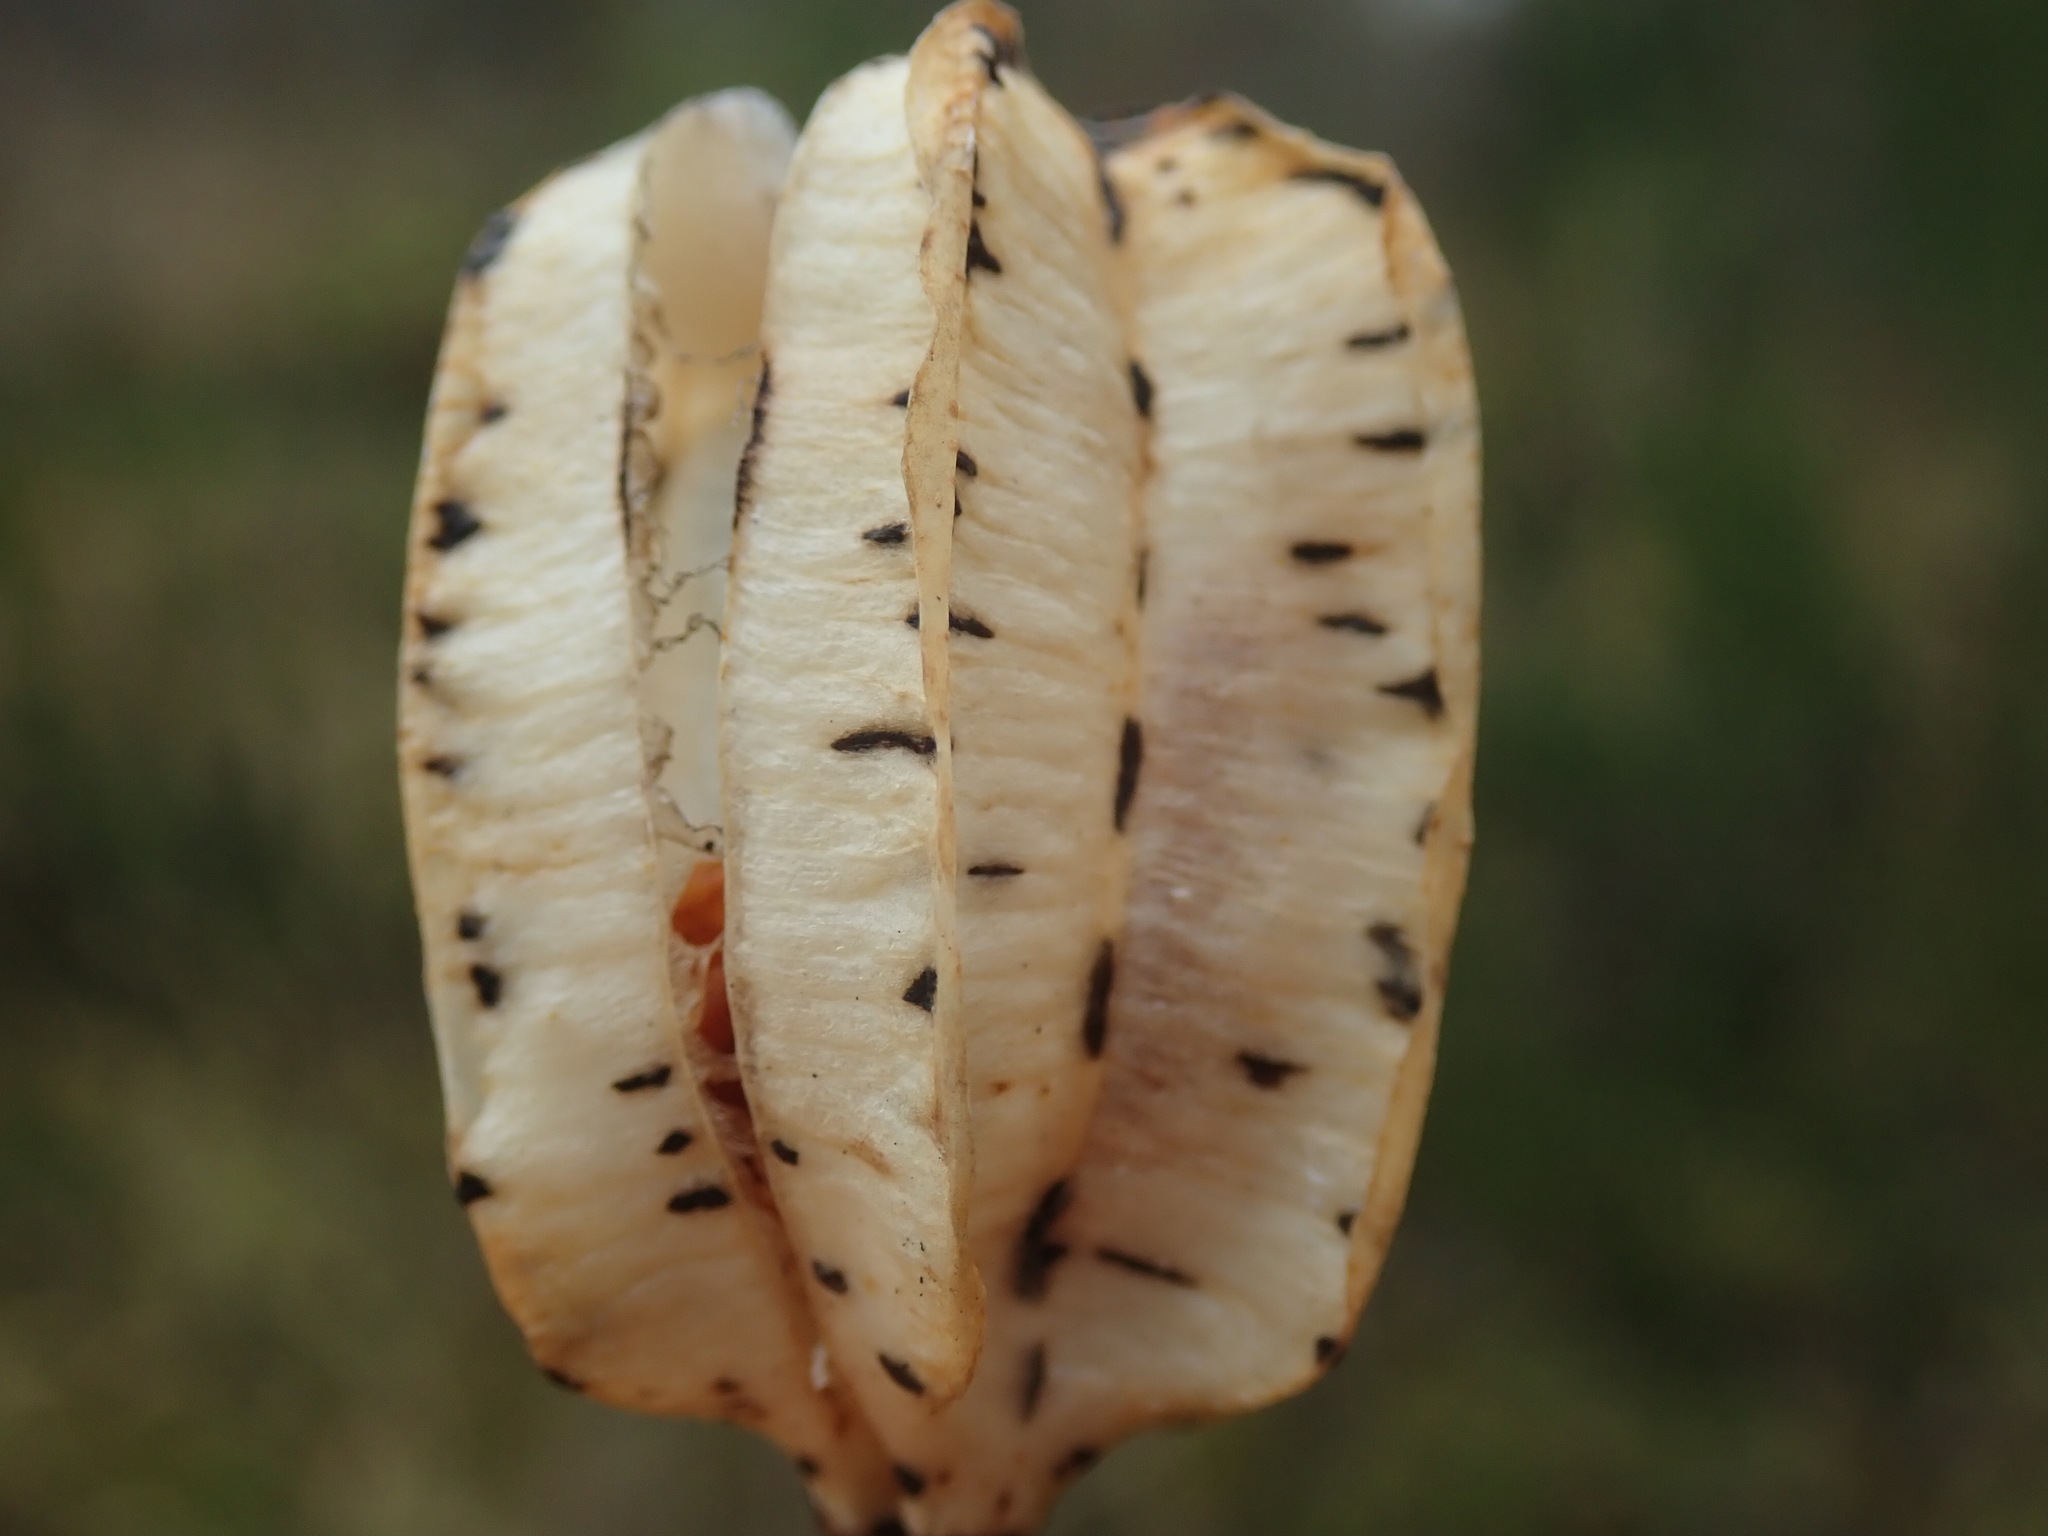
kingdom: Plantae
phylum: Tracheophyta
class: Liliopsida
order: Liliales
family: Liliaceae
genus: Fritillaria
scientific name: Fritillaria affinis
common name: Ojai fritillary
